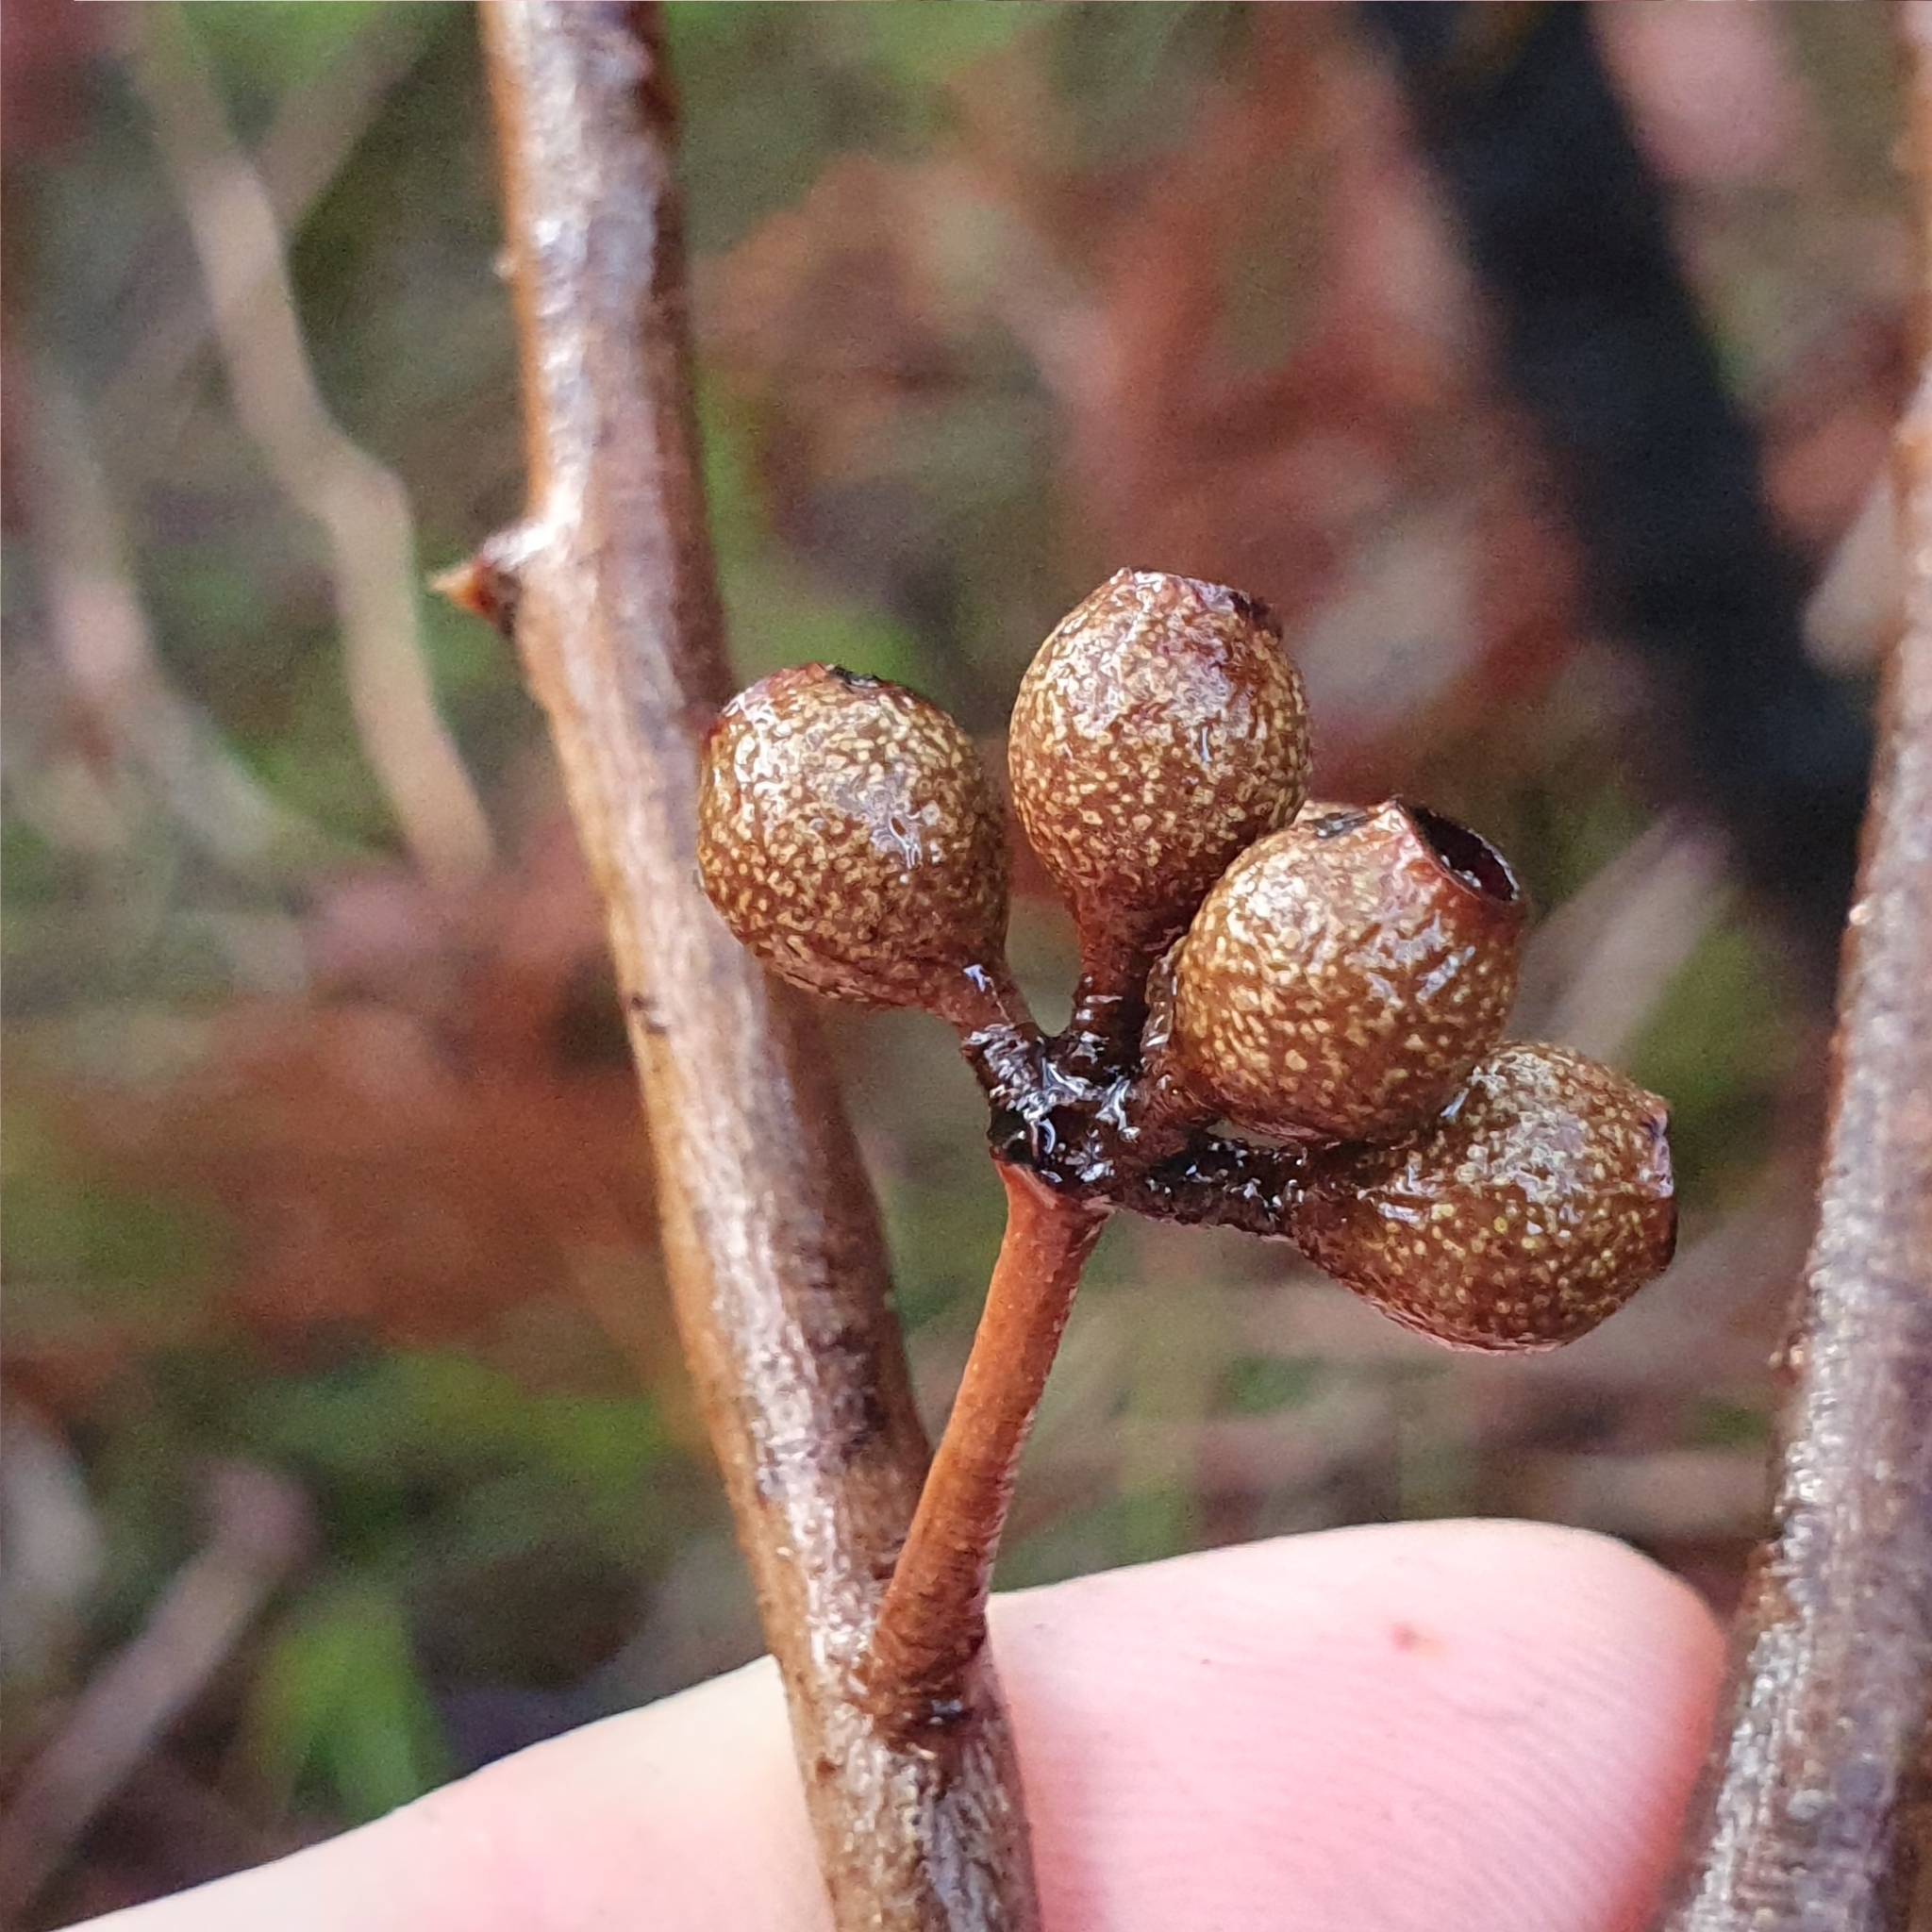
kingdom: Plantae
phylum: Tracheophyta
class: Magnoliopsida
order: Myrtales
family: Myrtaceae
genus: Eucalyptus
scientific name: Eucalyptus piperita
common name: Sydney peppermint
